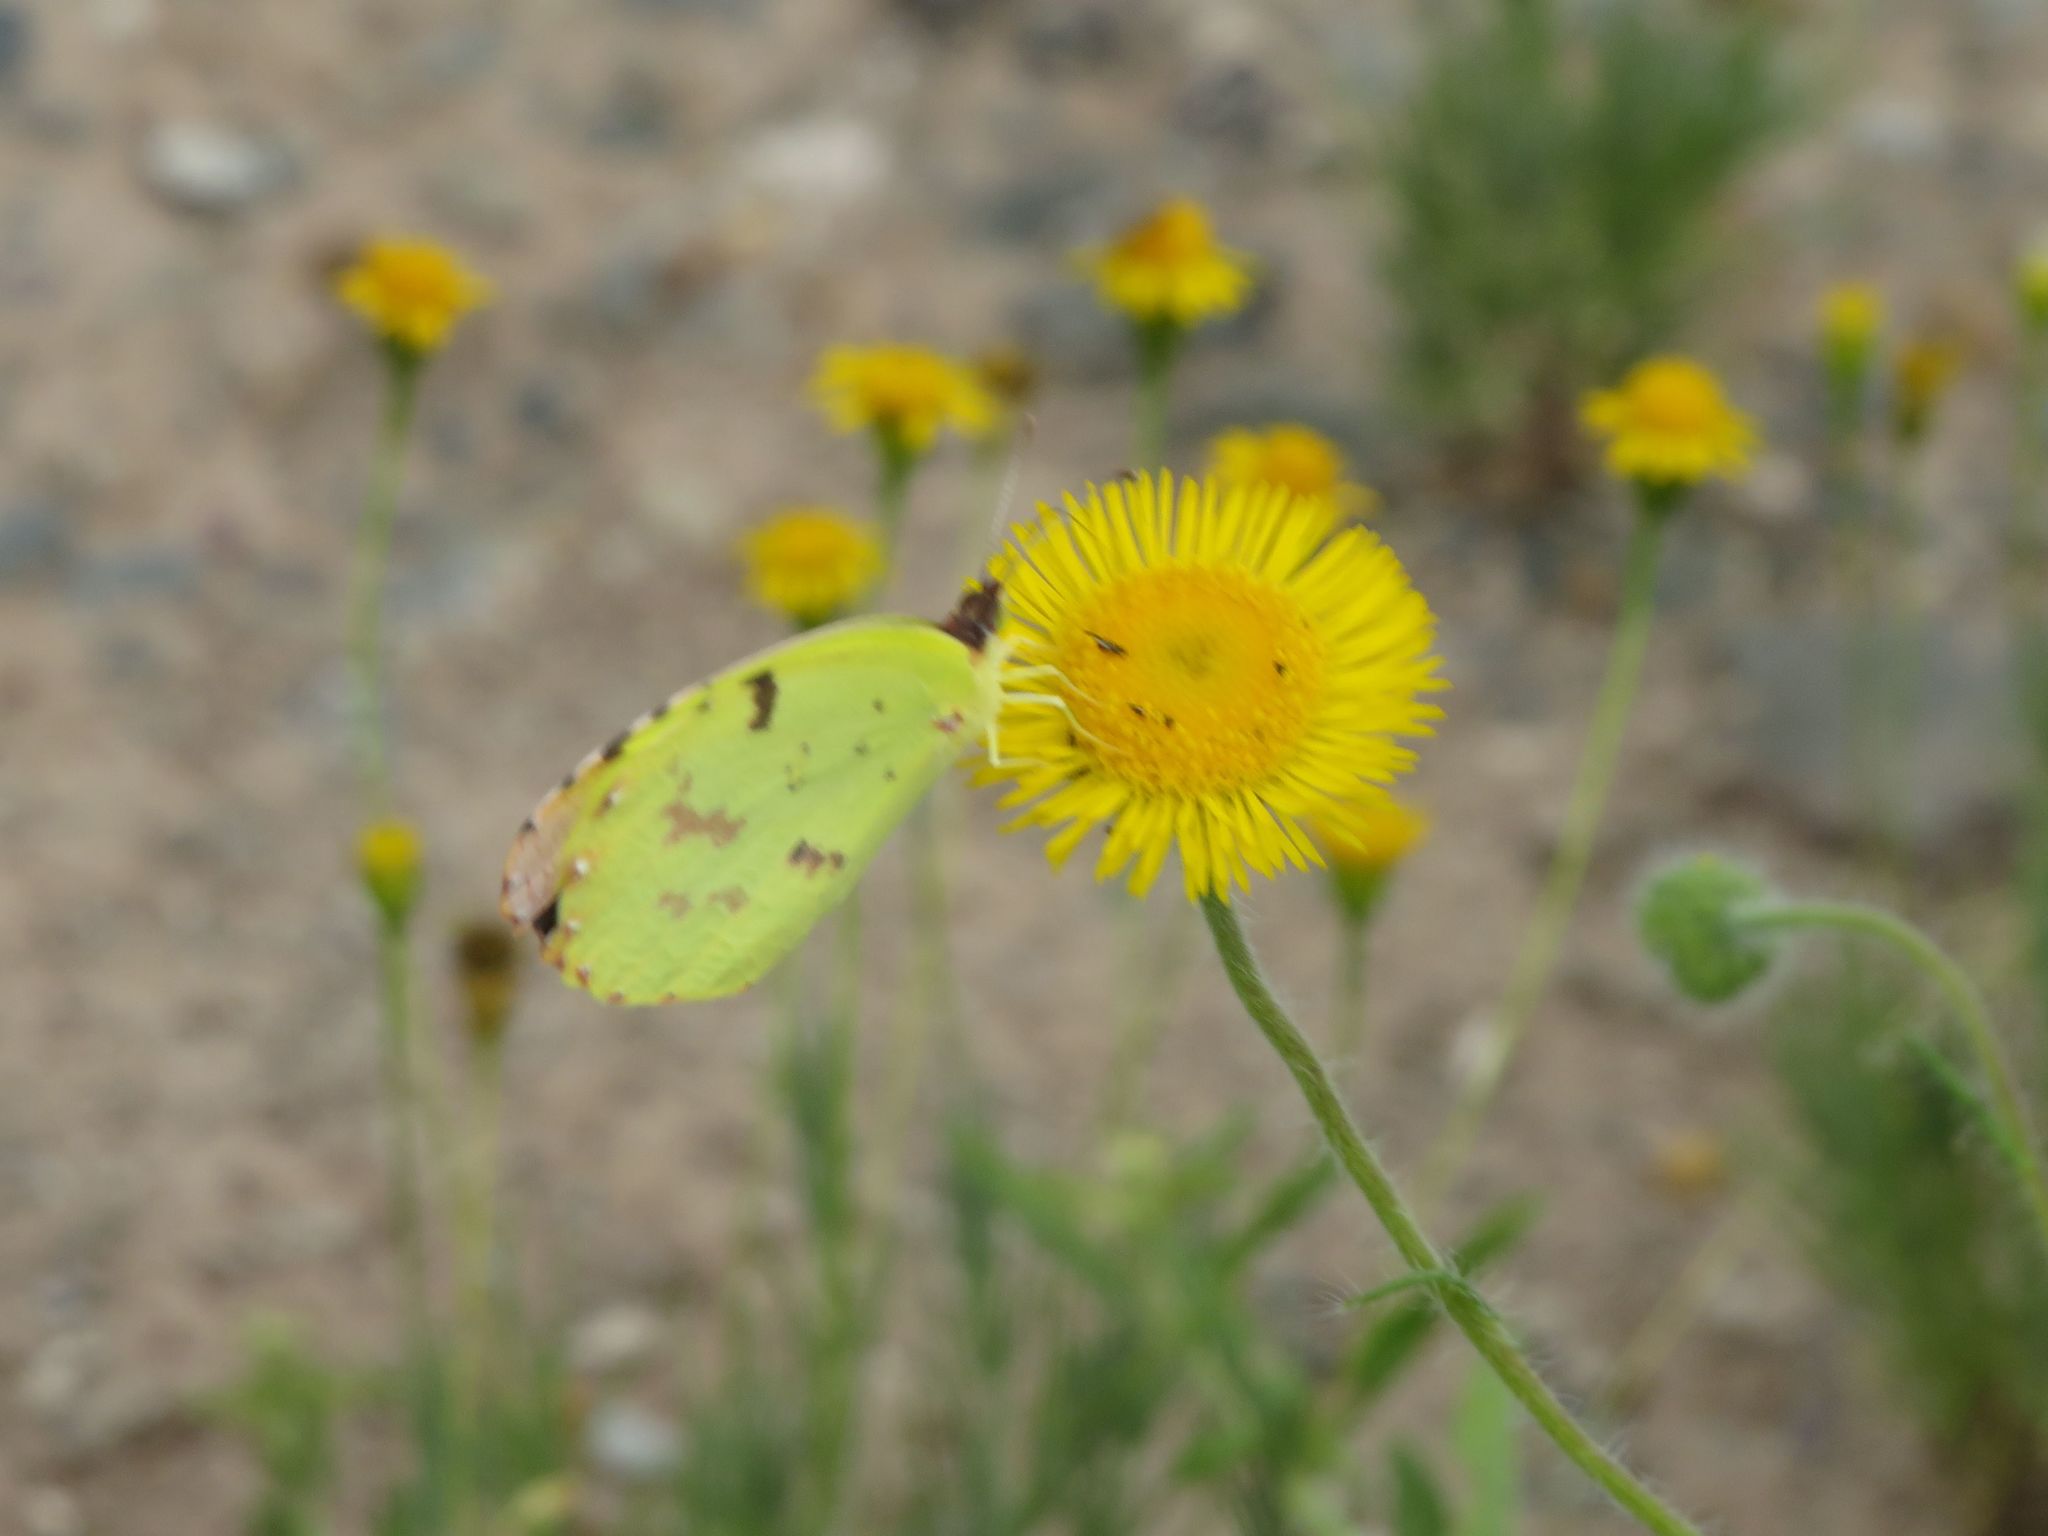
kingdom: Animalia
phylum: Arthropoda
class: Insecta
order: Lepidoptera
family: Pieridae
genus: Teriocolias
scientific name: Teriocolias
